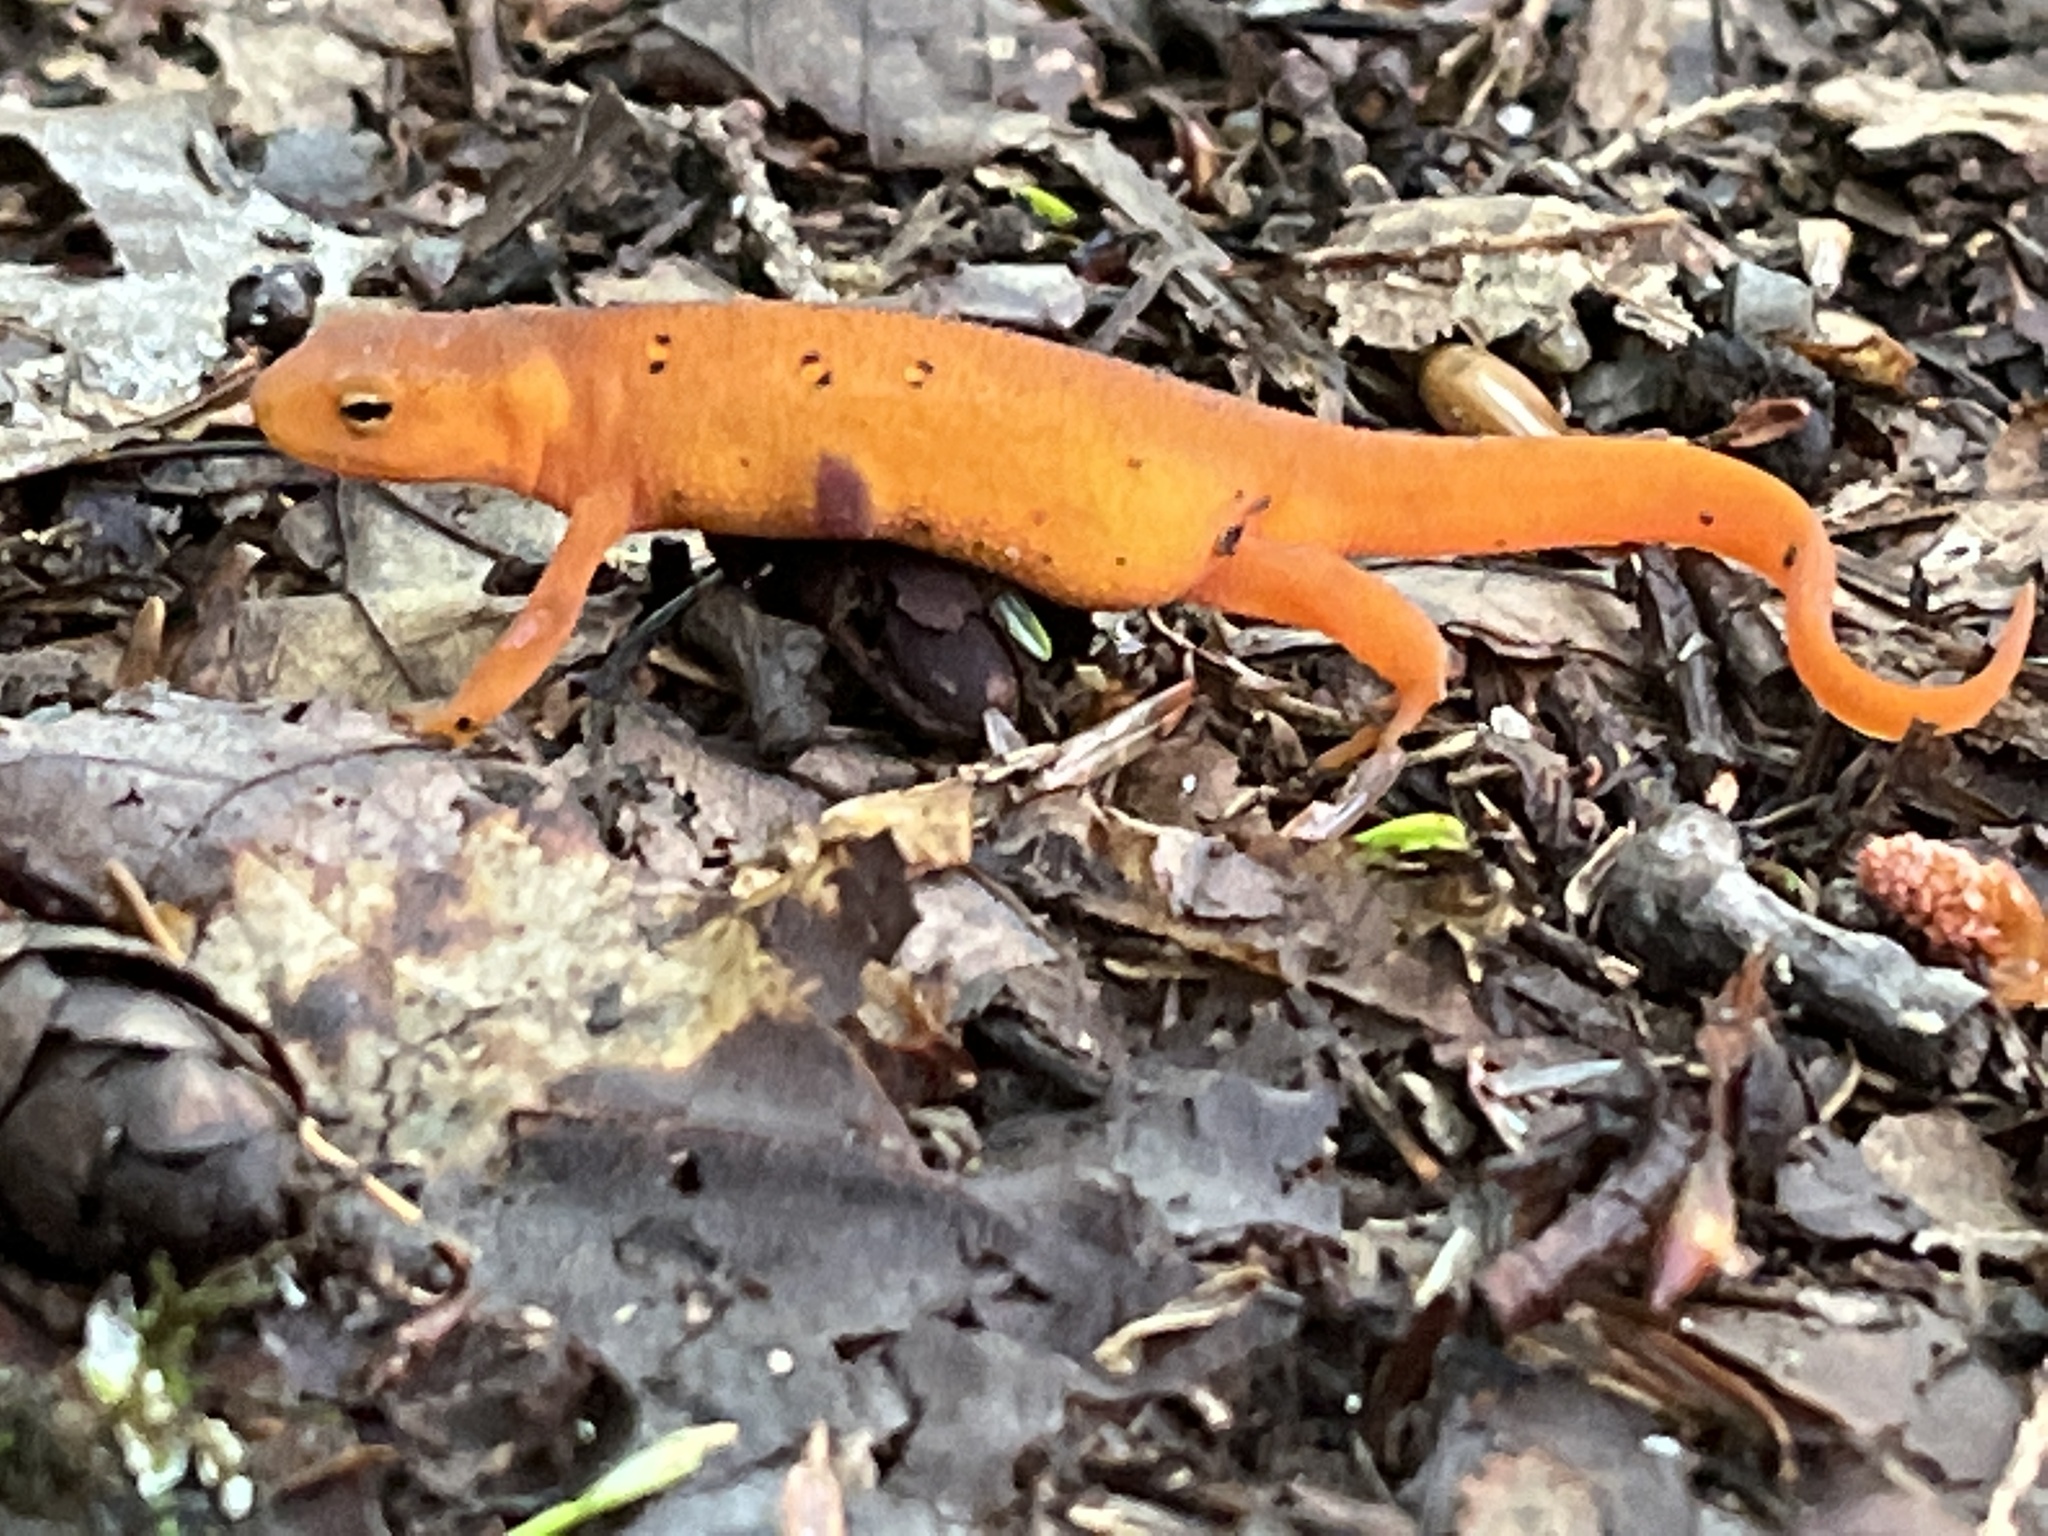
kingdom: Animalia
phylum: Chordata
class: Amphibia
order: Caudata
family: Salamandridae
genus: Notophthalmus
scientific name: Notophthalmus viridescens
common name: Eastern newt
